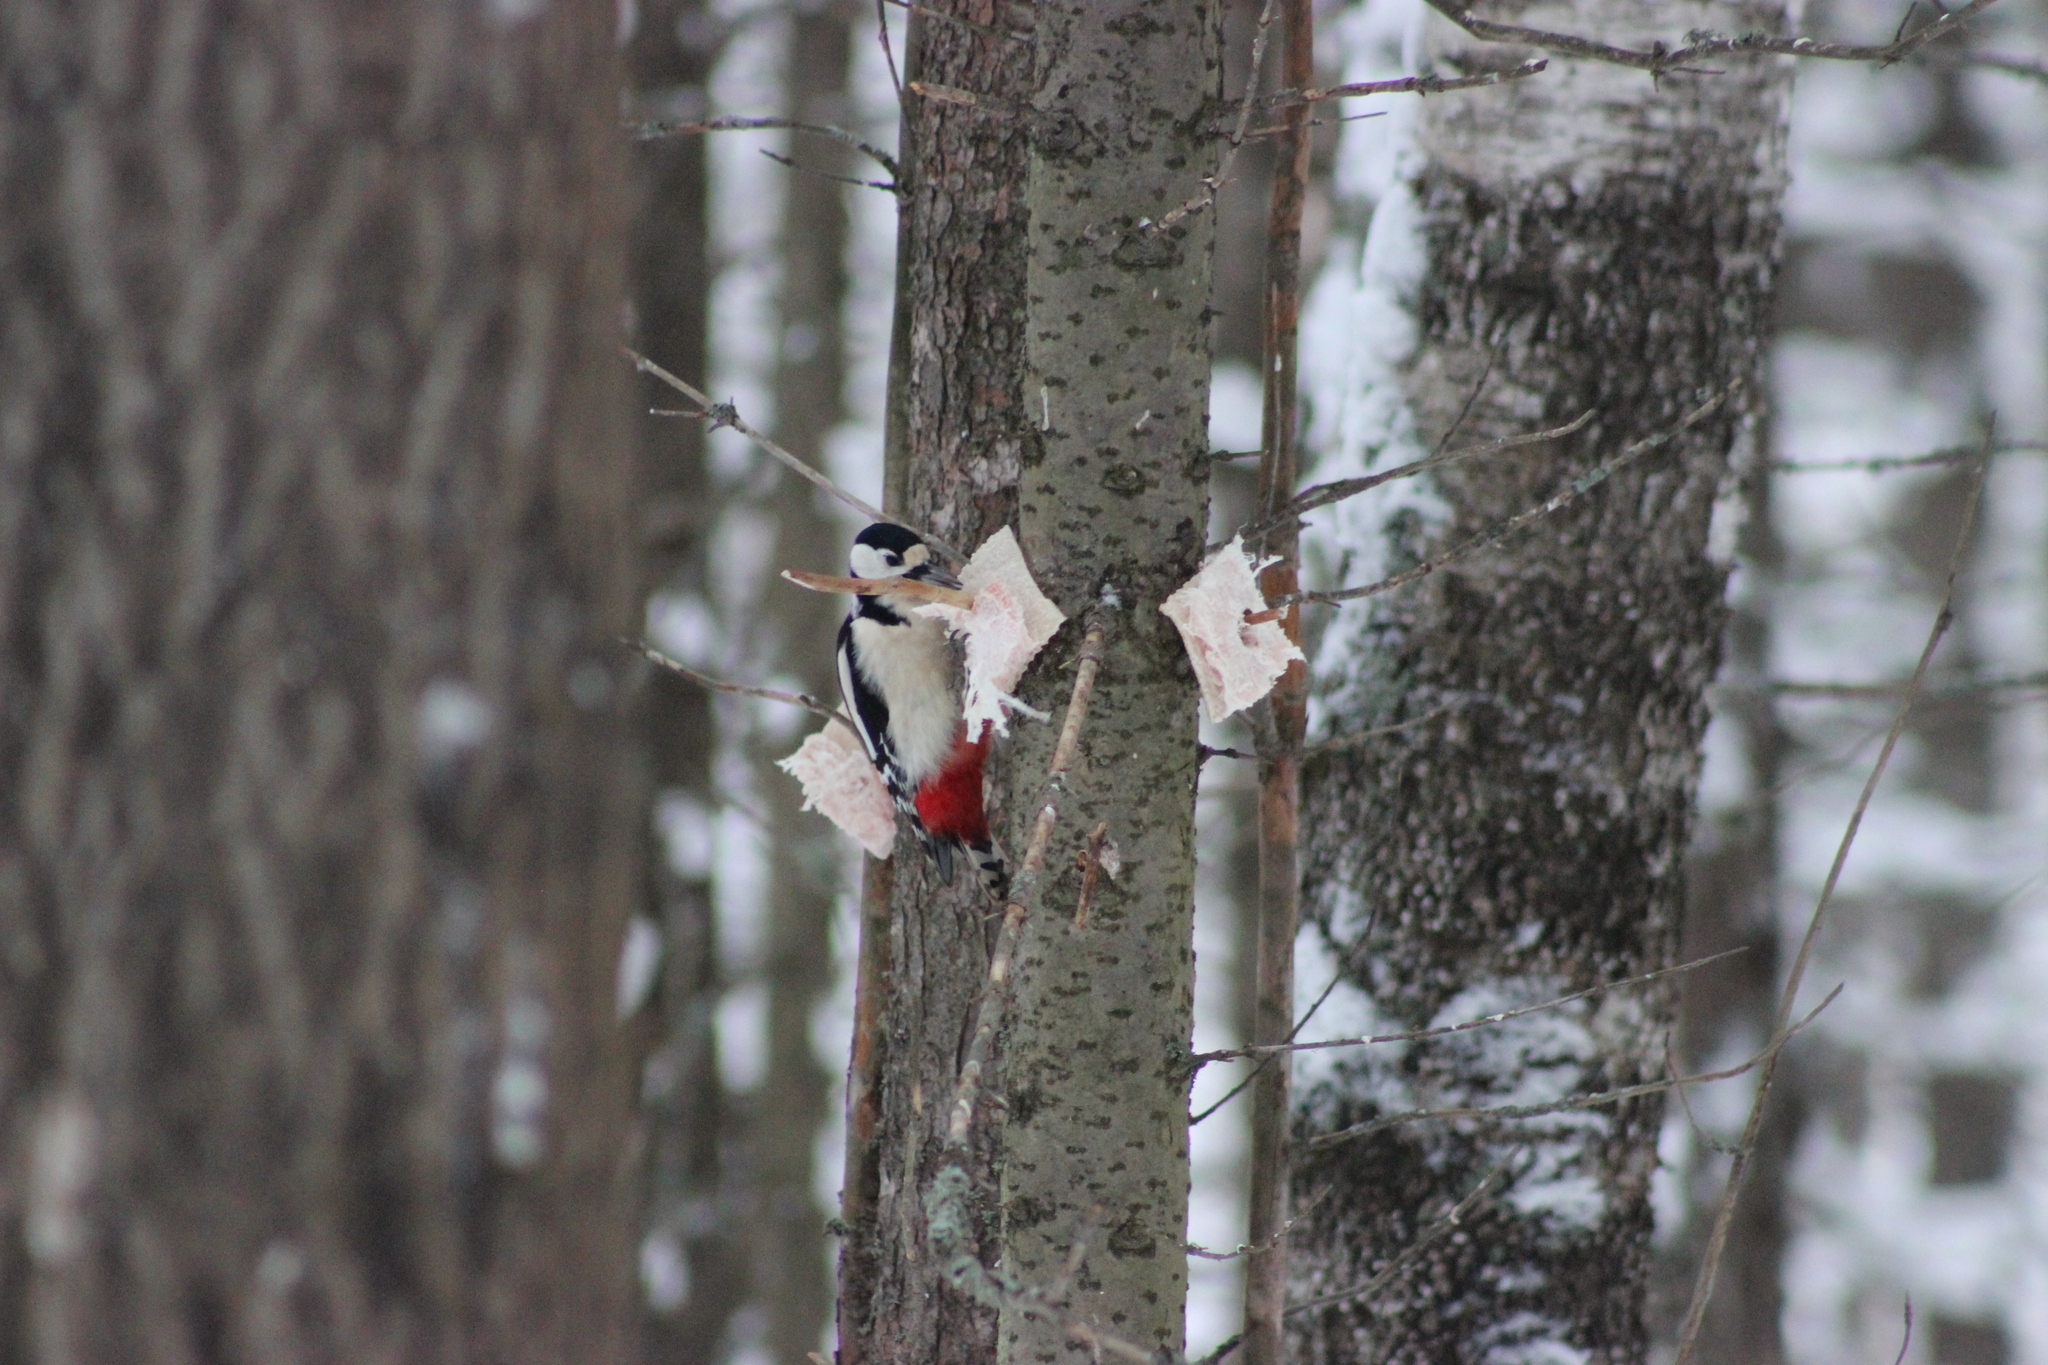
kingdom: Animalia
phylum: Chordata
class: Aves
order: Piciformes
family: Picidae
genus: Dendrocopos
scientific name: Dendrocopos major
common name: Great spotted woodpecker
